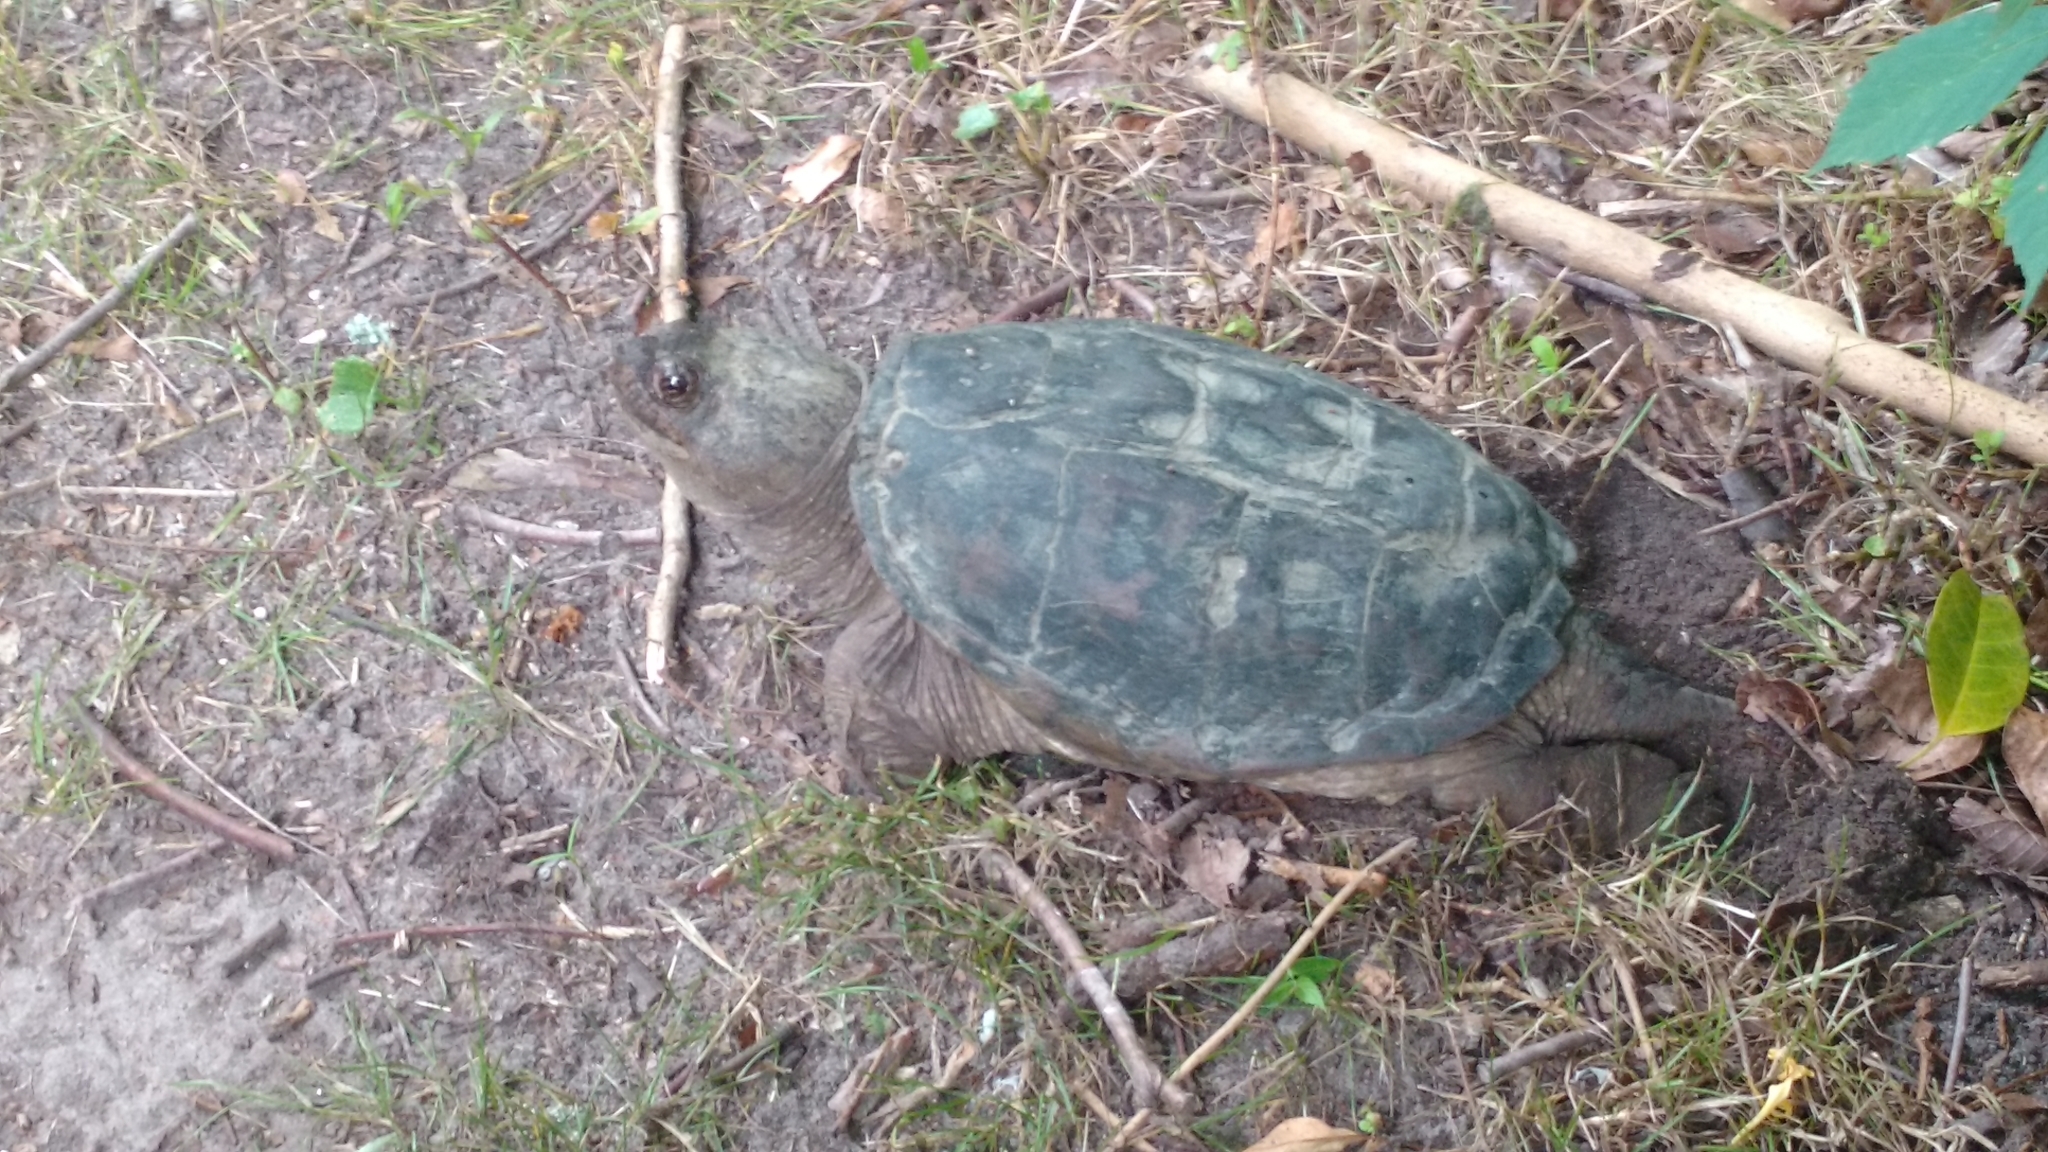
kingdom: Animalia
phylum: Chordata
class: Testudines
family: Chelydridae
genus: Chelydra
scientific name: Chelydra serpentina
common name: Common snapping turtle
